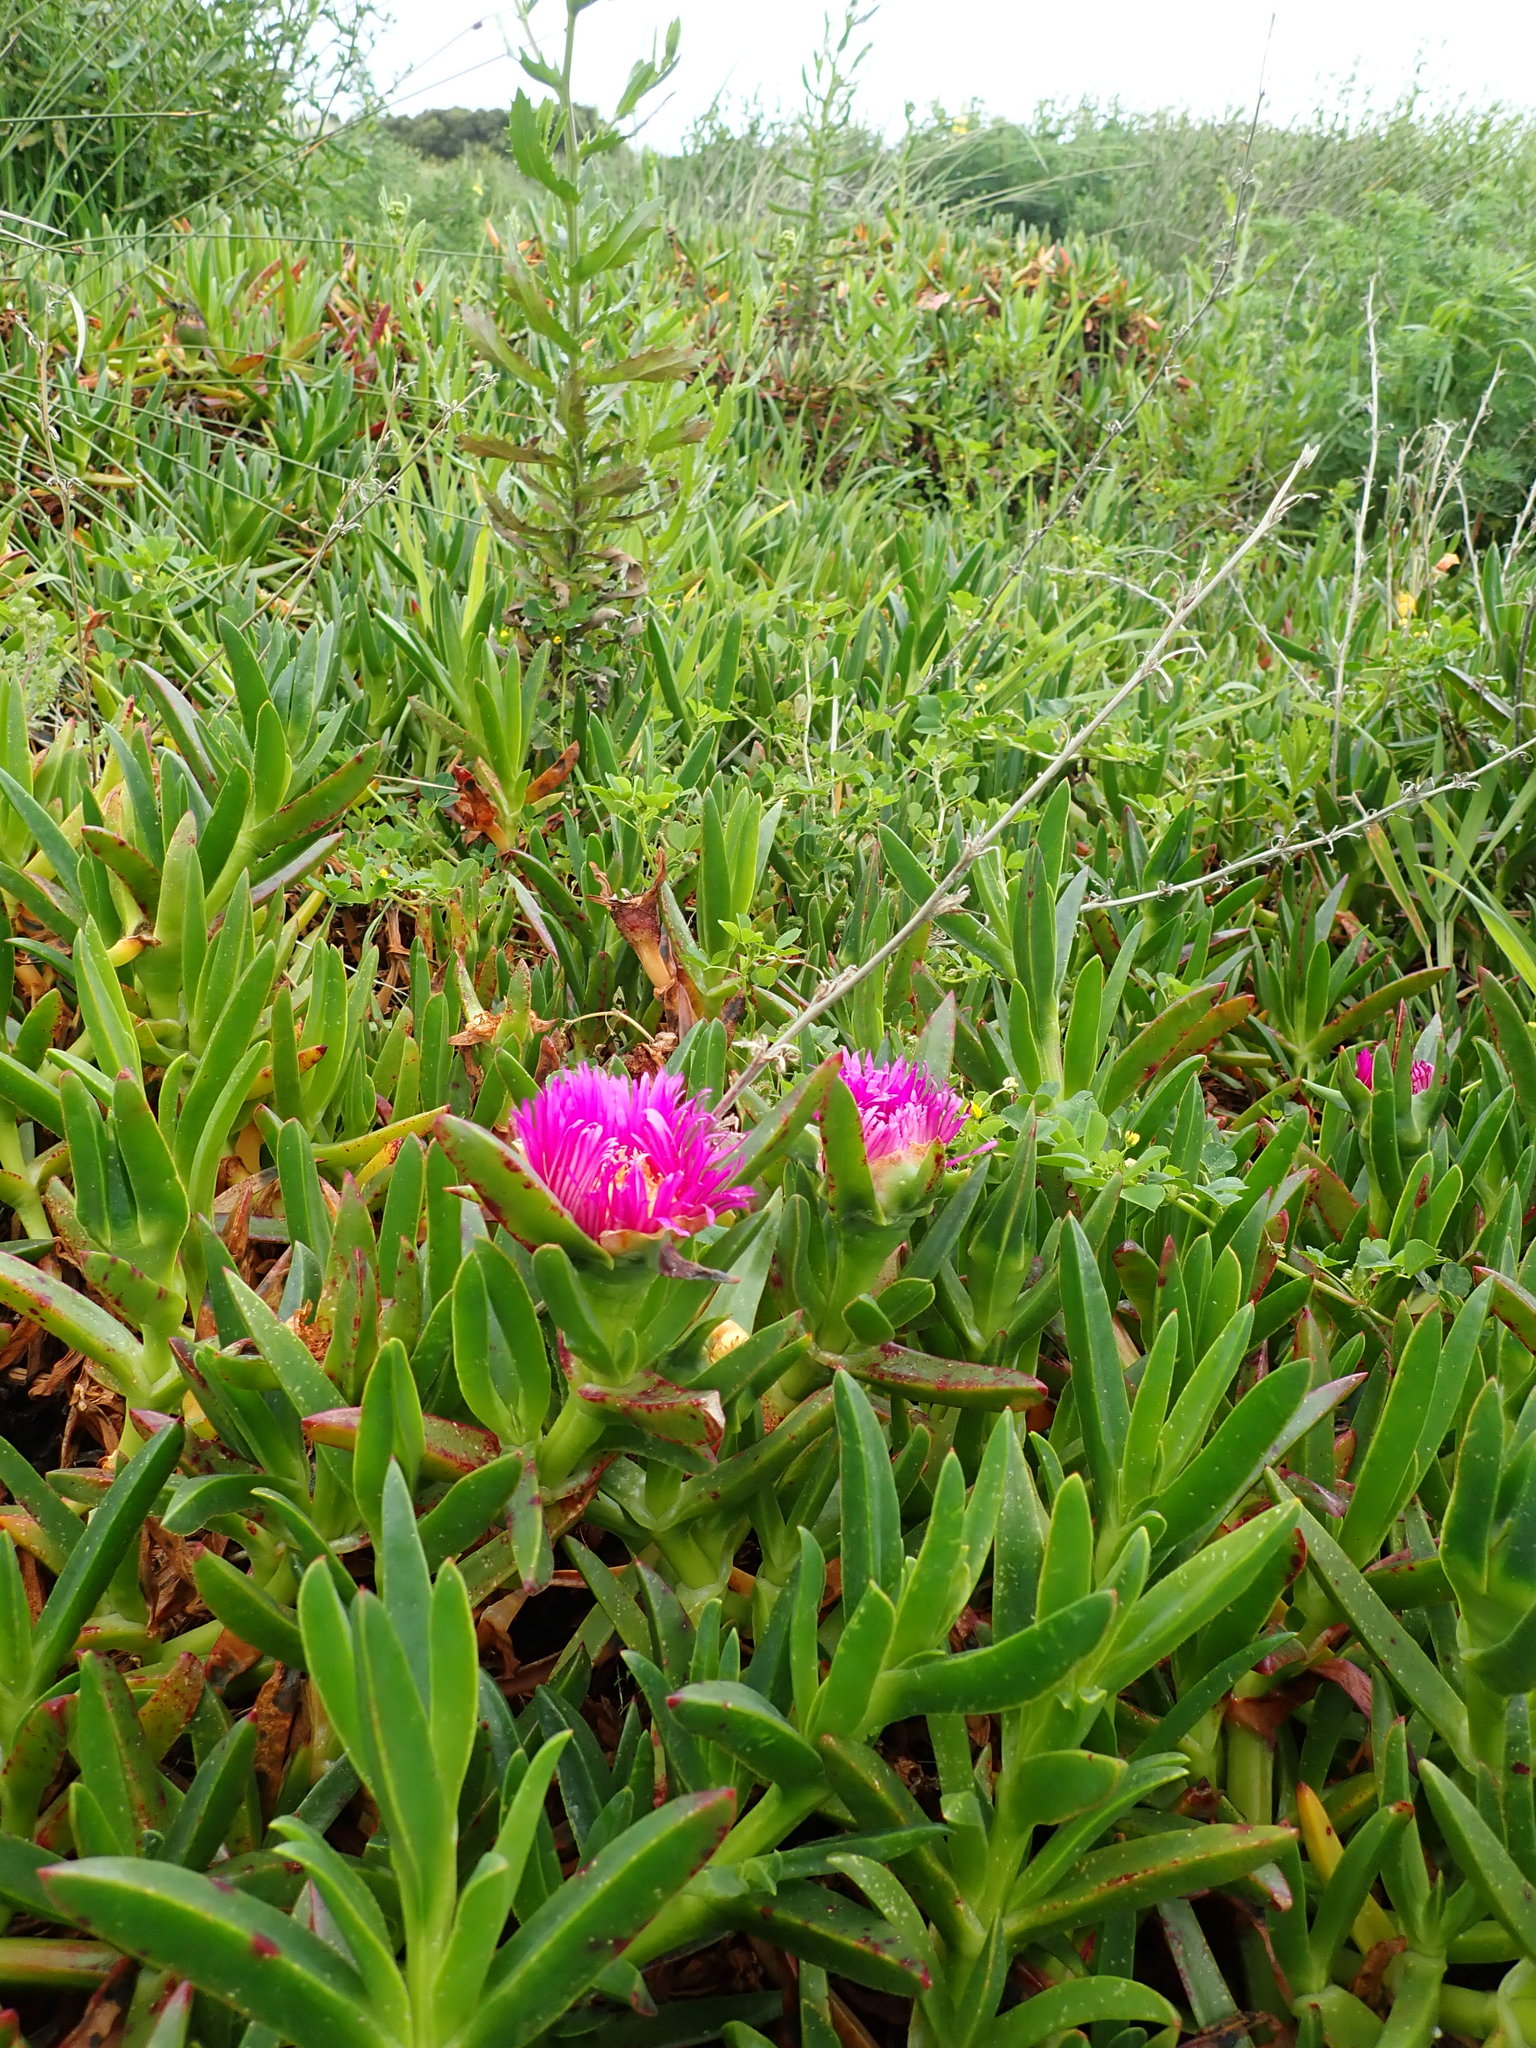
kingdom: Plantae
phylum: Tracheophyta
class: Magnoliopsida
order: Caryophyllales
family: Aizoaceae
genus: Carpobrotus
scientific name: Carpobrotus chilensis
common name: Sea fig
